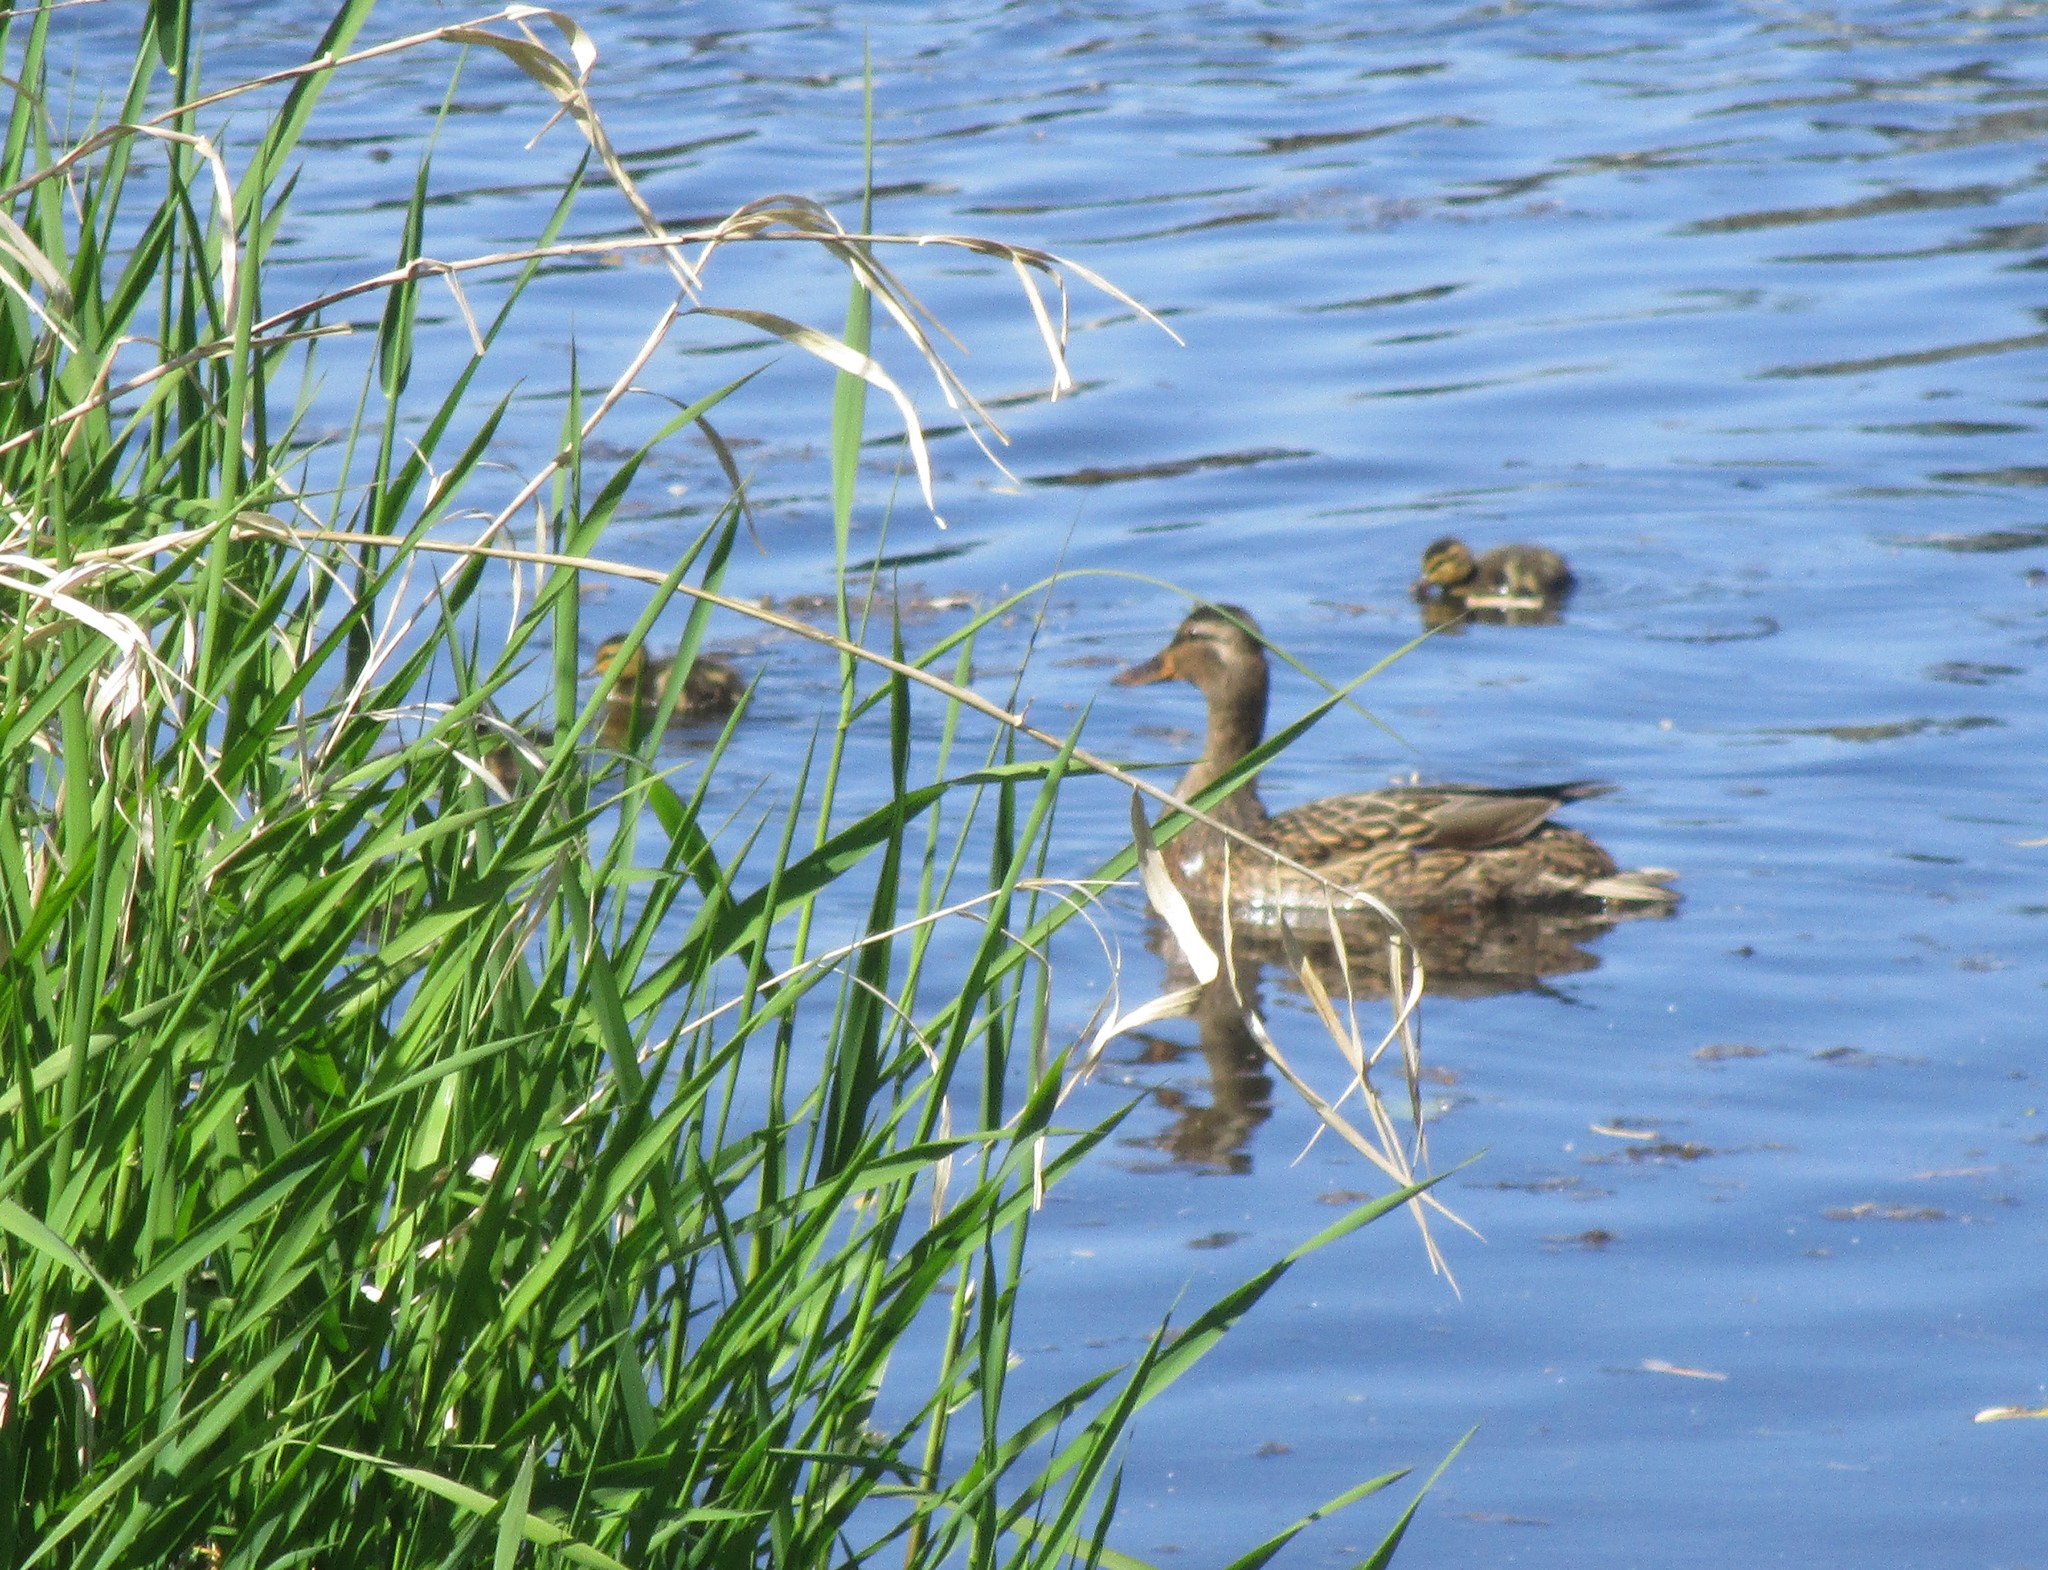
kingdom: Animalia
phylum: Chordata
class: Aves
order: Anseriformes
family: Anatidae
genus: Anas
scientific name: Anas platyrhynchos
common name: Mallard
